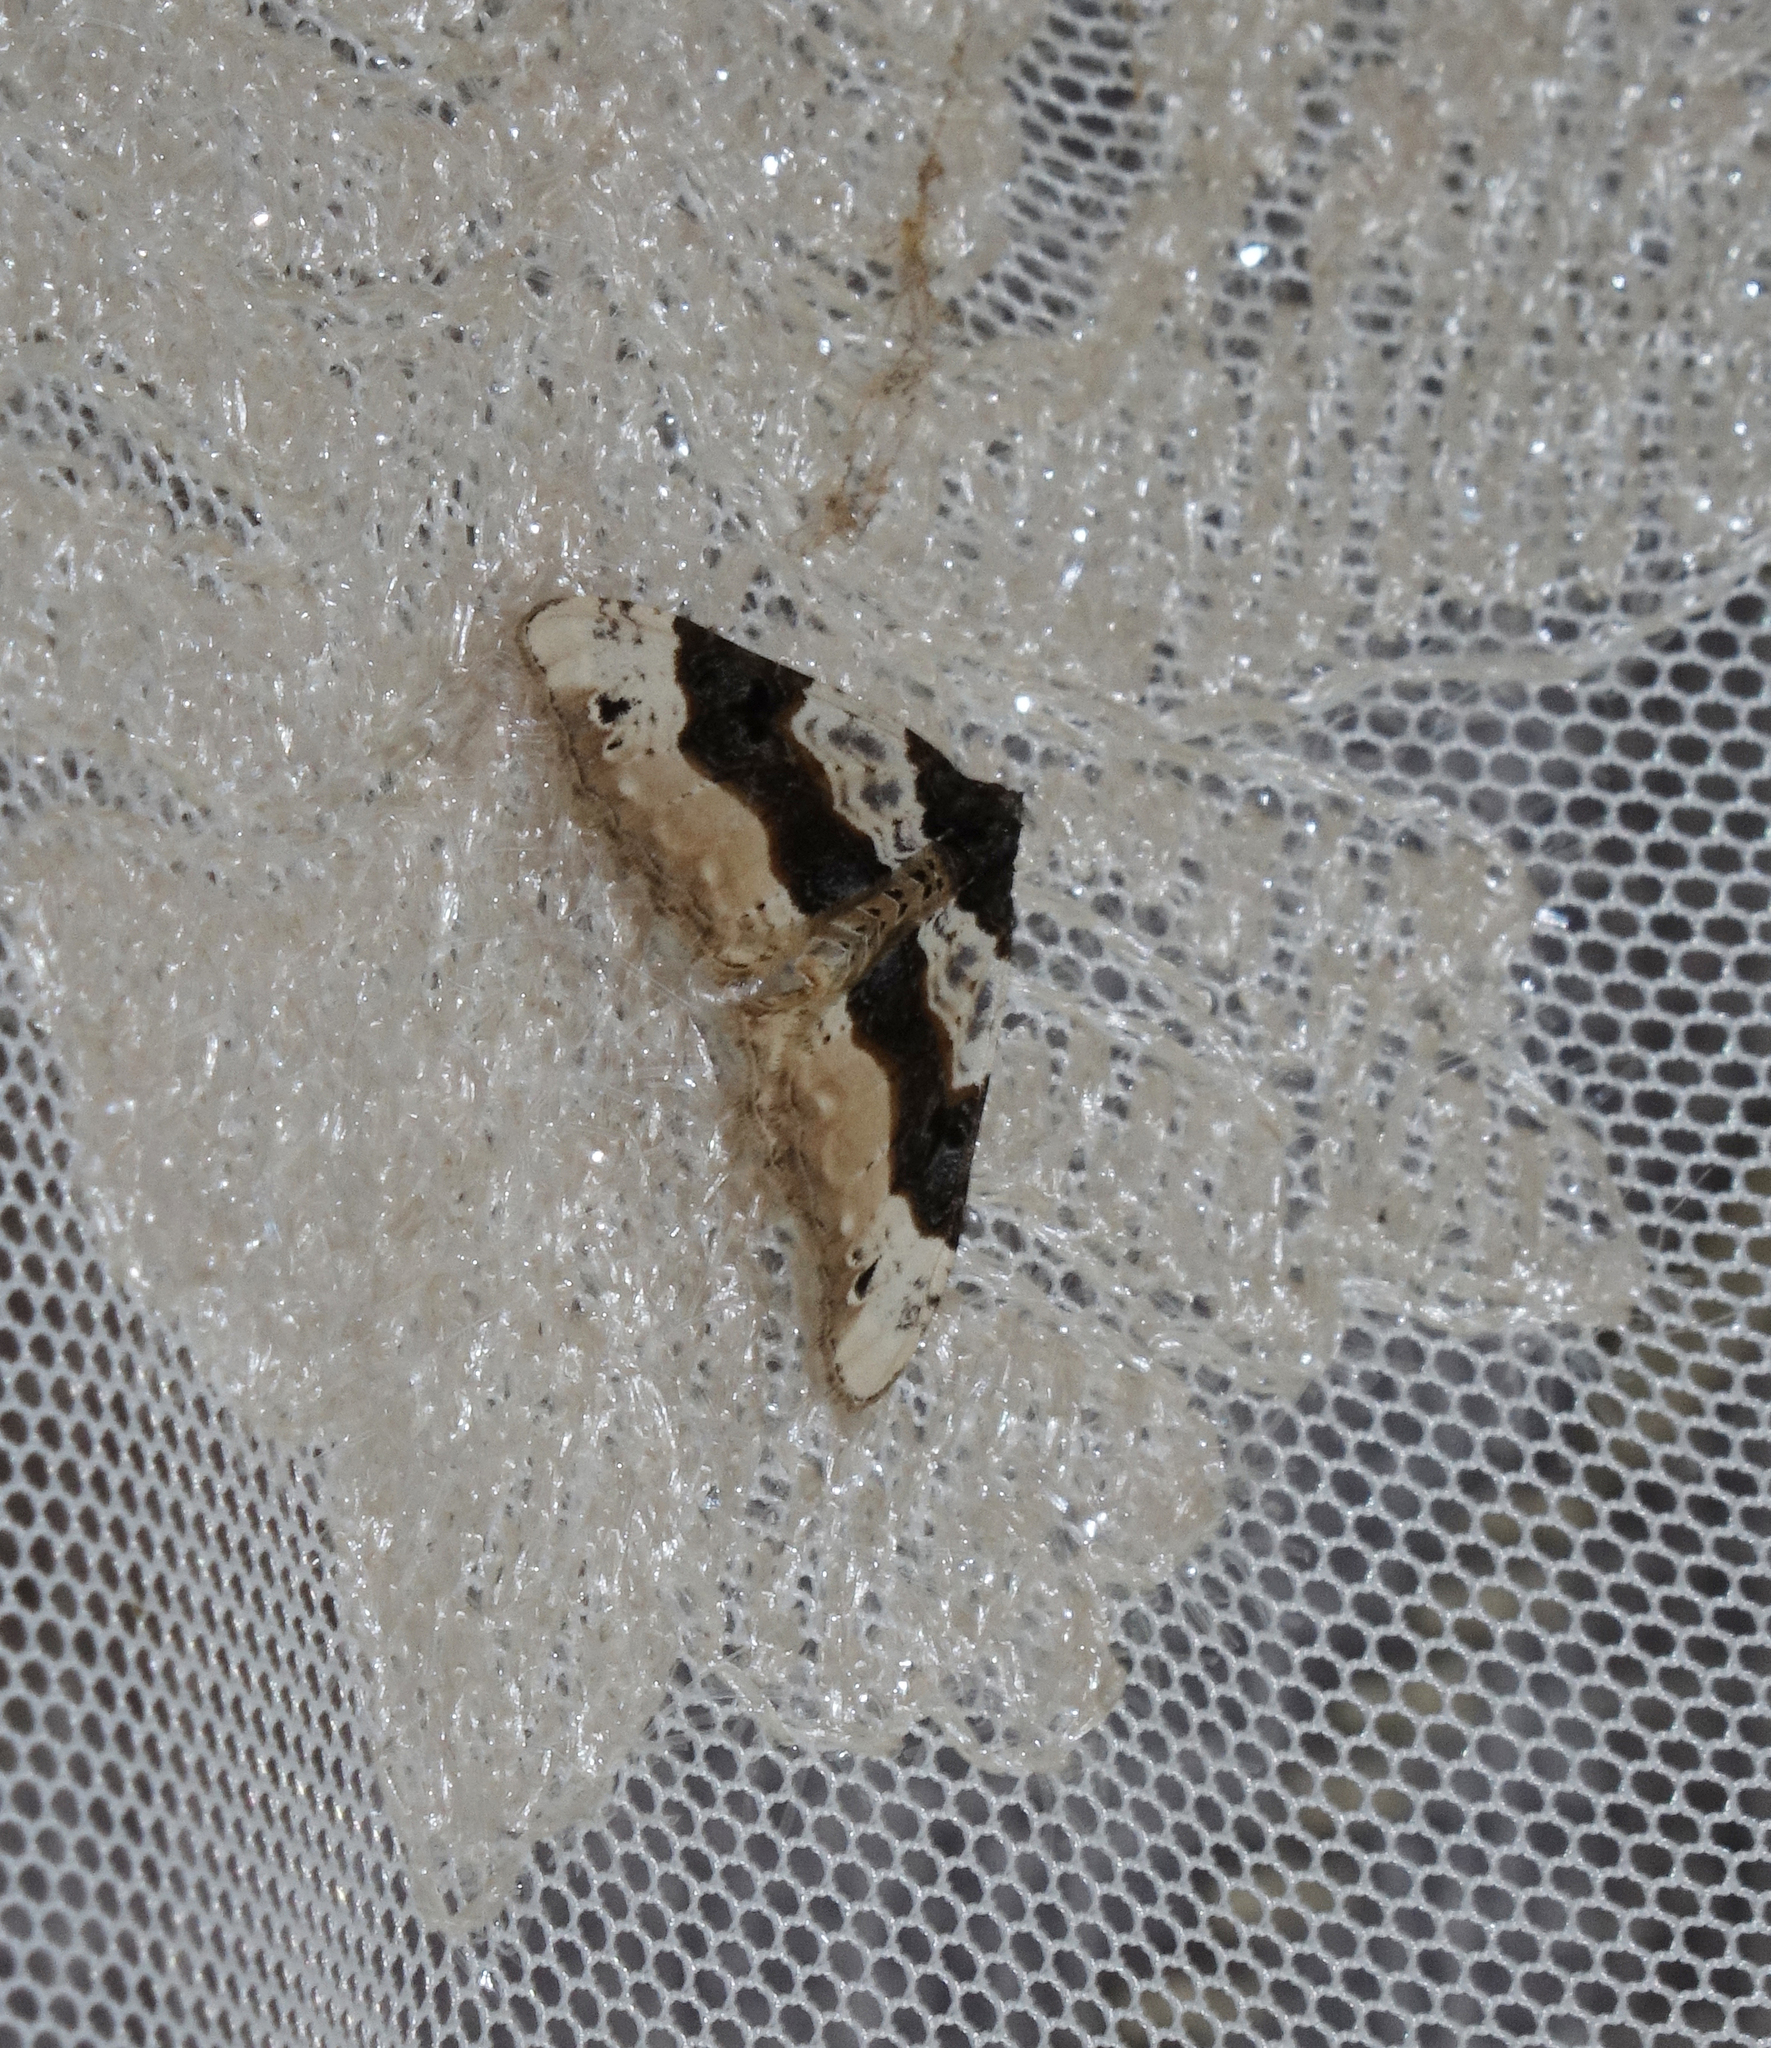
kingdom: Animalia
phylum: Arthropoda
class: Insecta
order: Lepidoptera
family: Geometridae
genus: Cosmorhoe
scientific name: Cosmorhoe ocellata
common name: Purple bar
